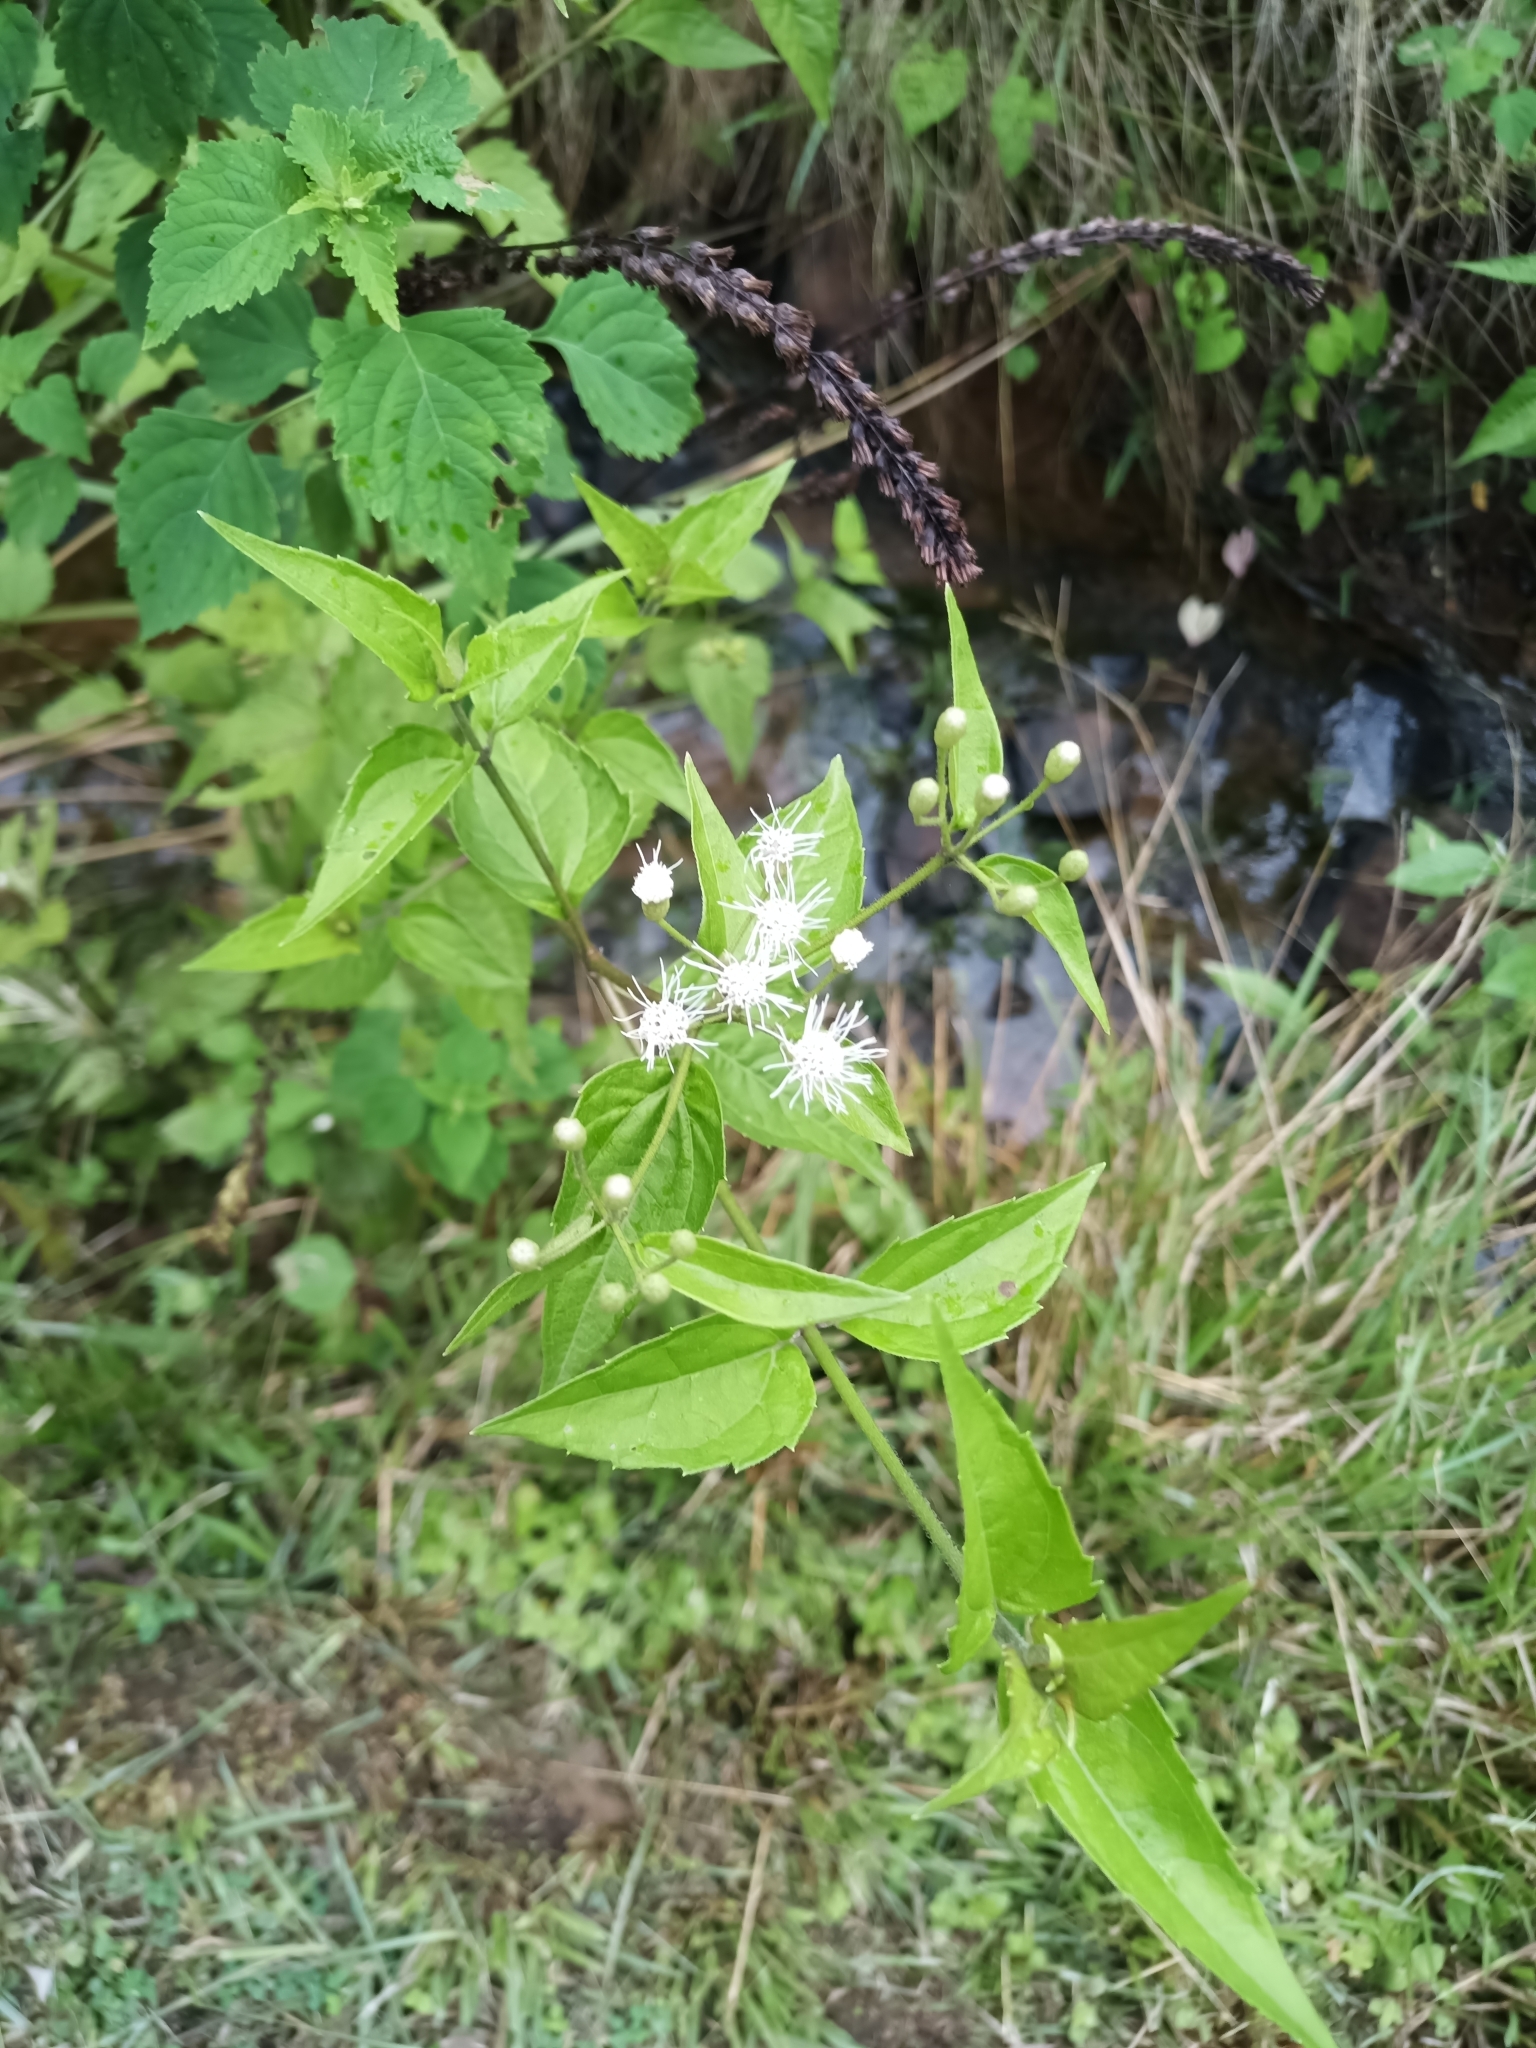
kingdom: Plantae
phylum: Tracheophyta
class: Magnoliopsida
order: Asterales
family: Asteraceae
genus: Chromolaena
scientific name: Chromolaena odorata
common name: Siamweed
